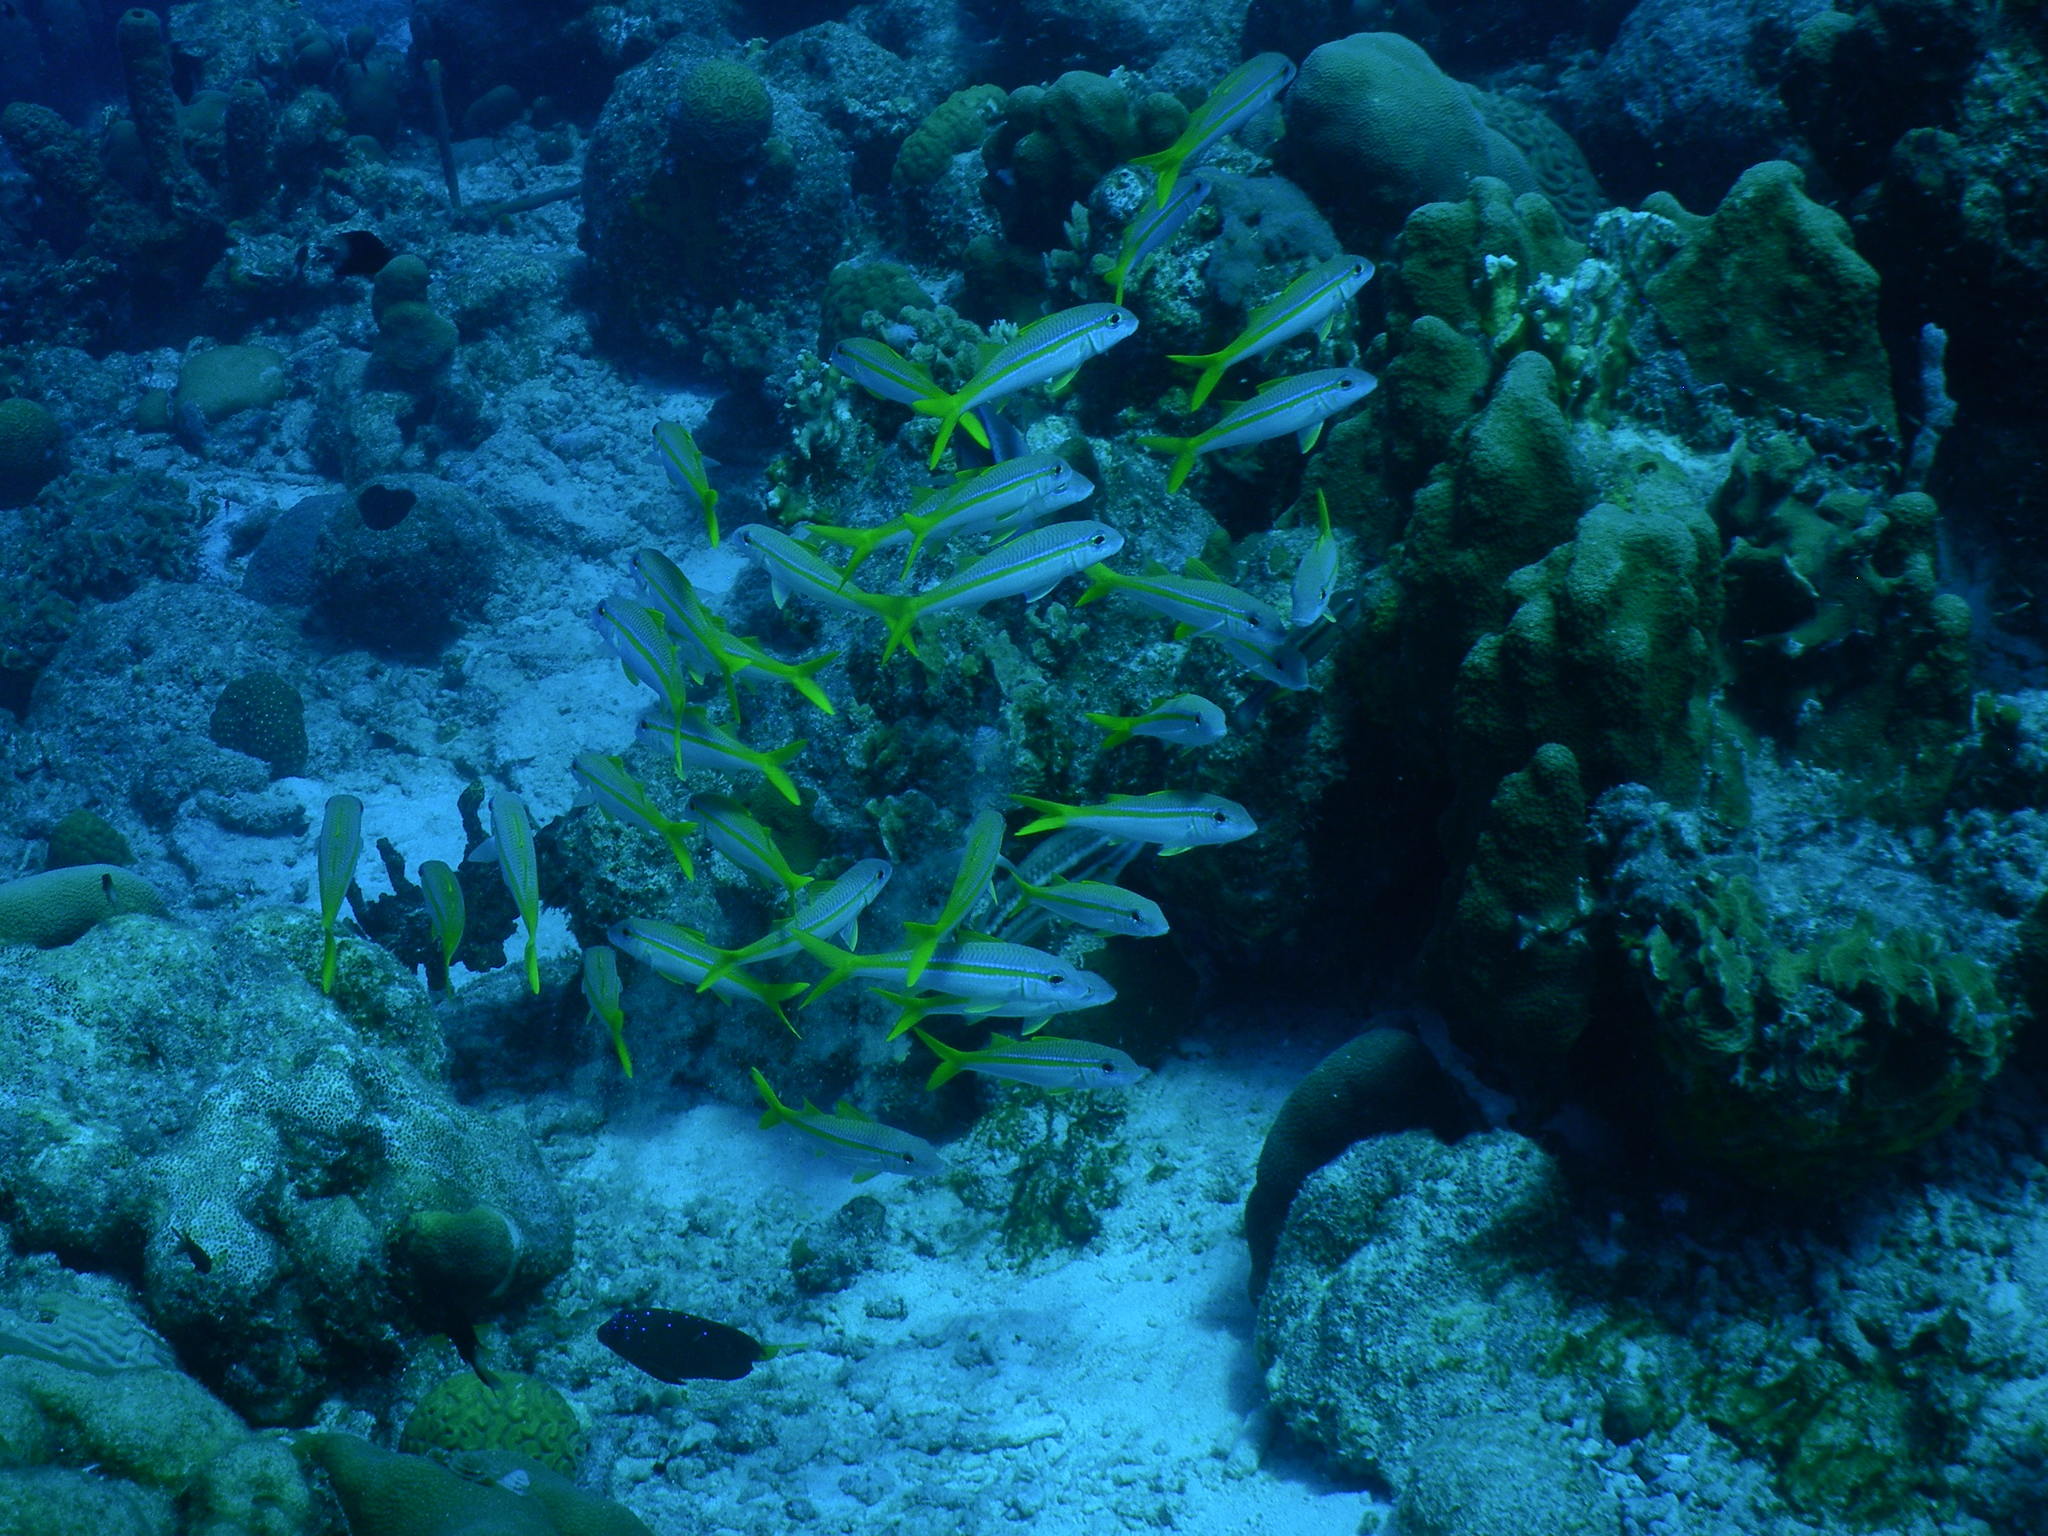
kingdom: Animalia
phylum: Chordata
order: Perciformes
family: Mullidae
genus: Mulloidichthys
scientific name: Mulloidichthys martinicus
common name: Yellow goatfish
